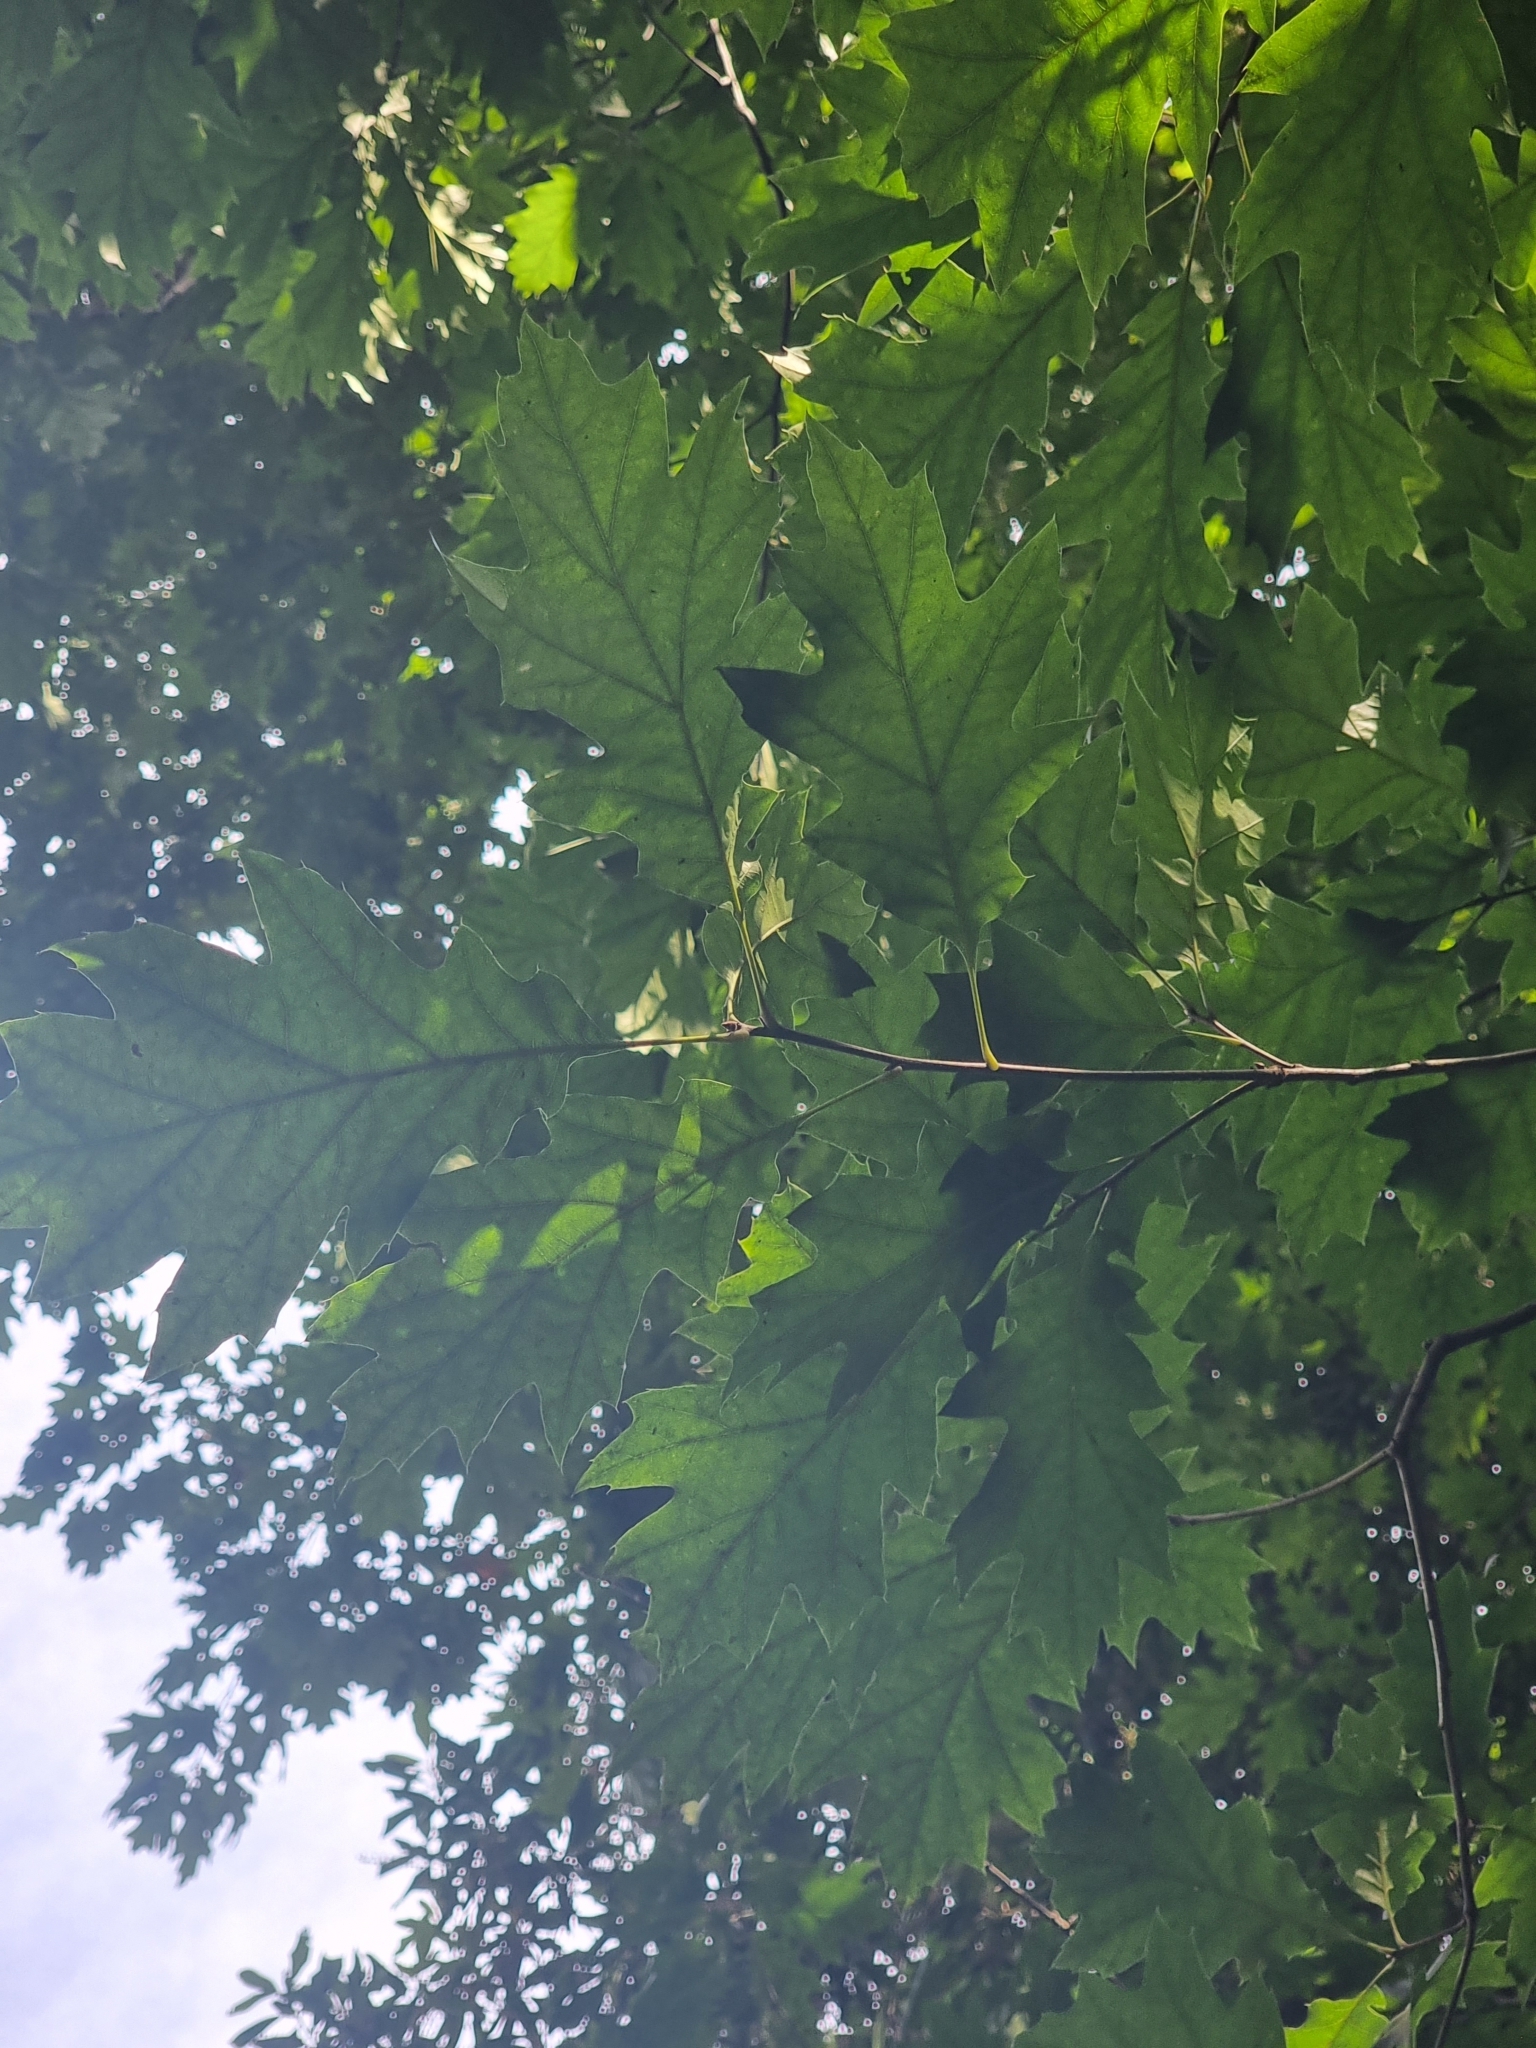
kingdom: Plantae
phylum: Tracheophyta
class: Magnoliopsida
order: Fagales
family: Fagaceae
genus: Quercus
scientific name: Quercus rubra
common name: Red oak
